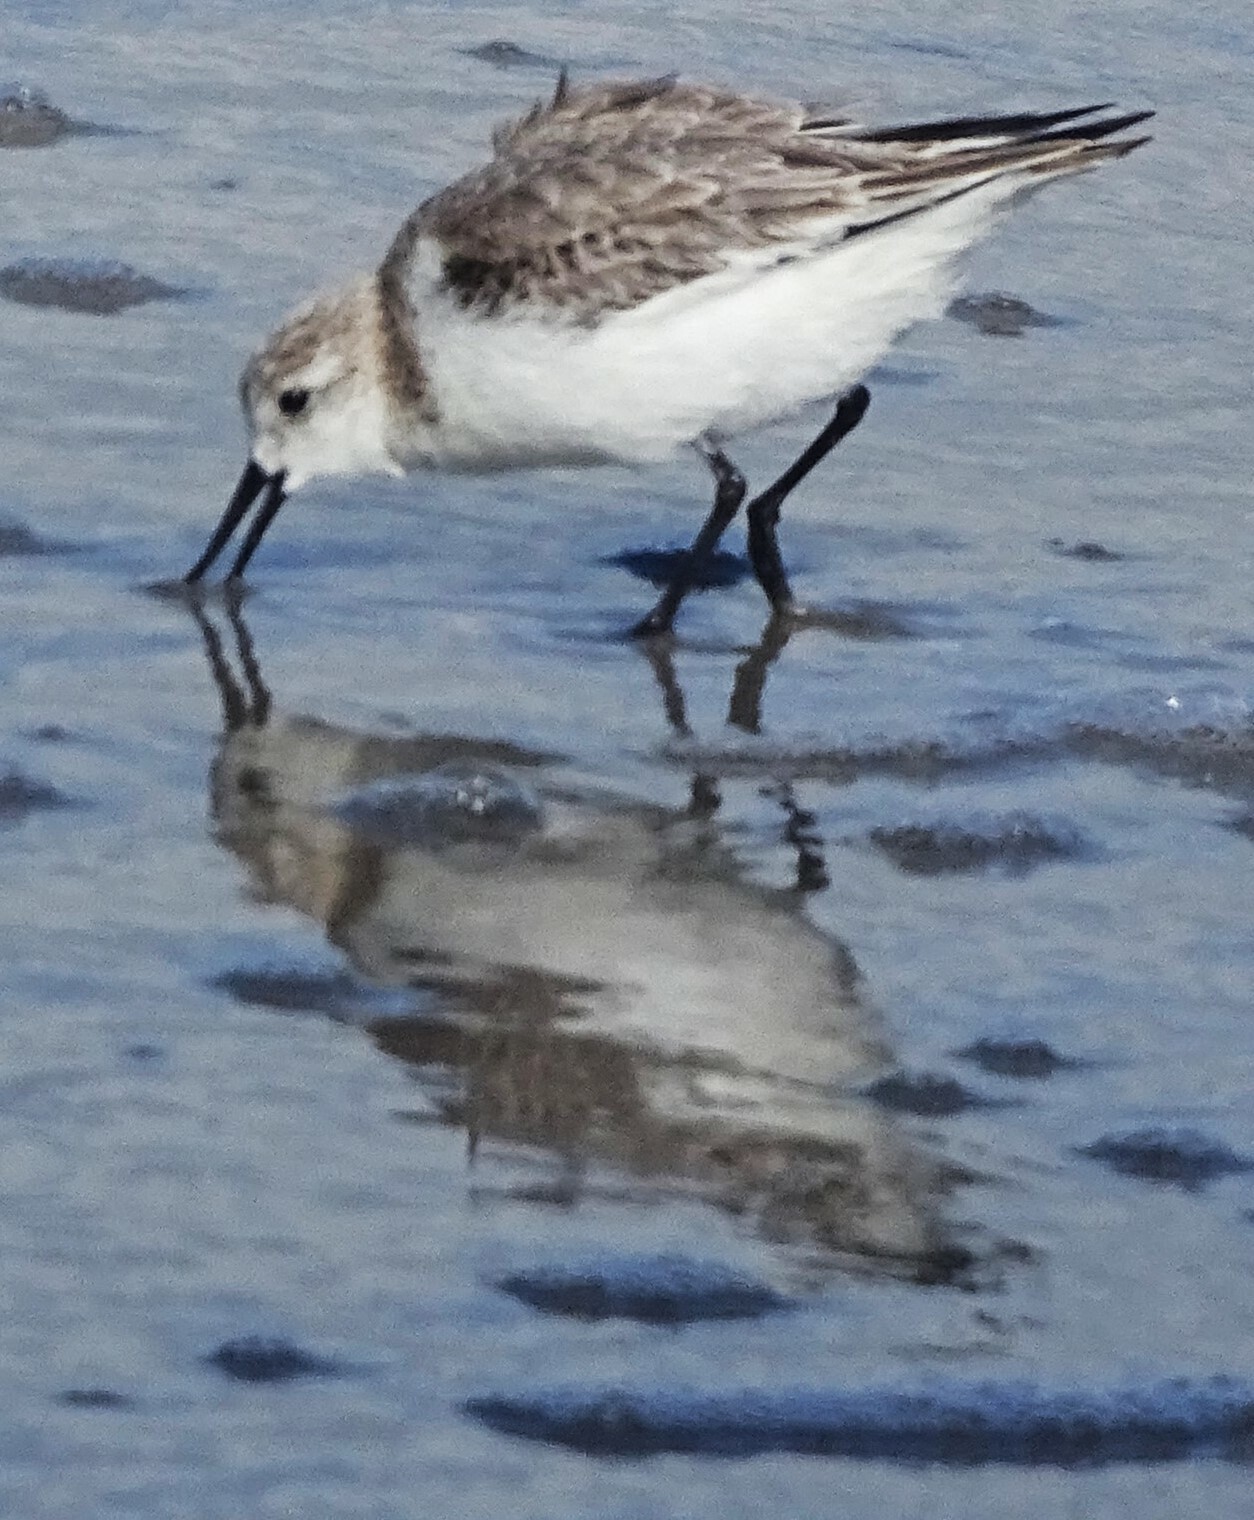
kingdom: Animalia
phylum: Chordata
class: Aves
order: Charadriiformes
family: Scolopacidae
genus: Calidris
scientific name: Calidris alba
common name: Sanderling
